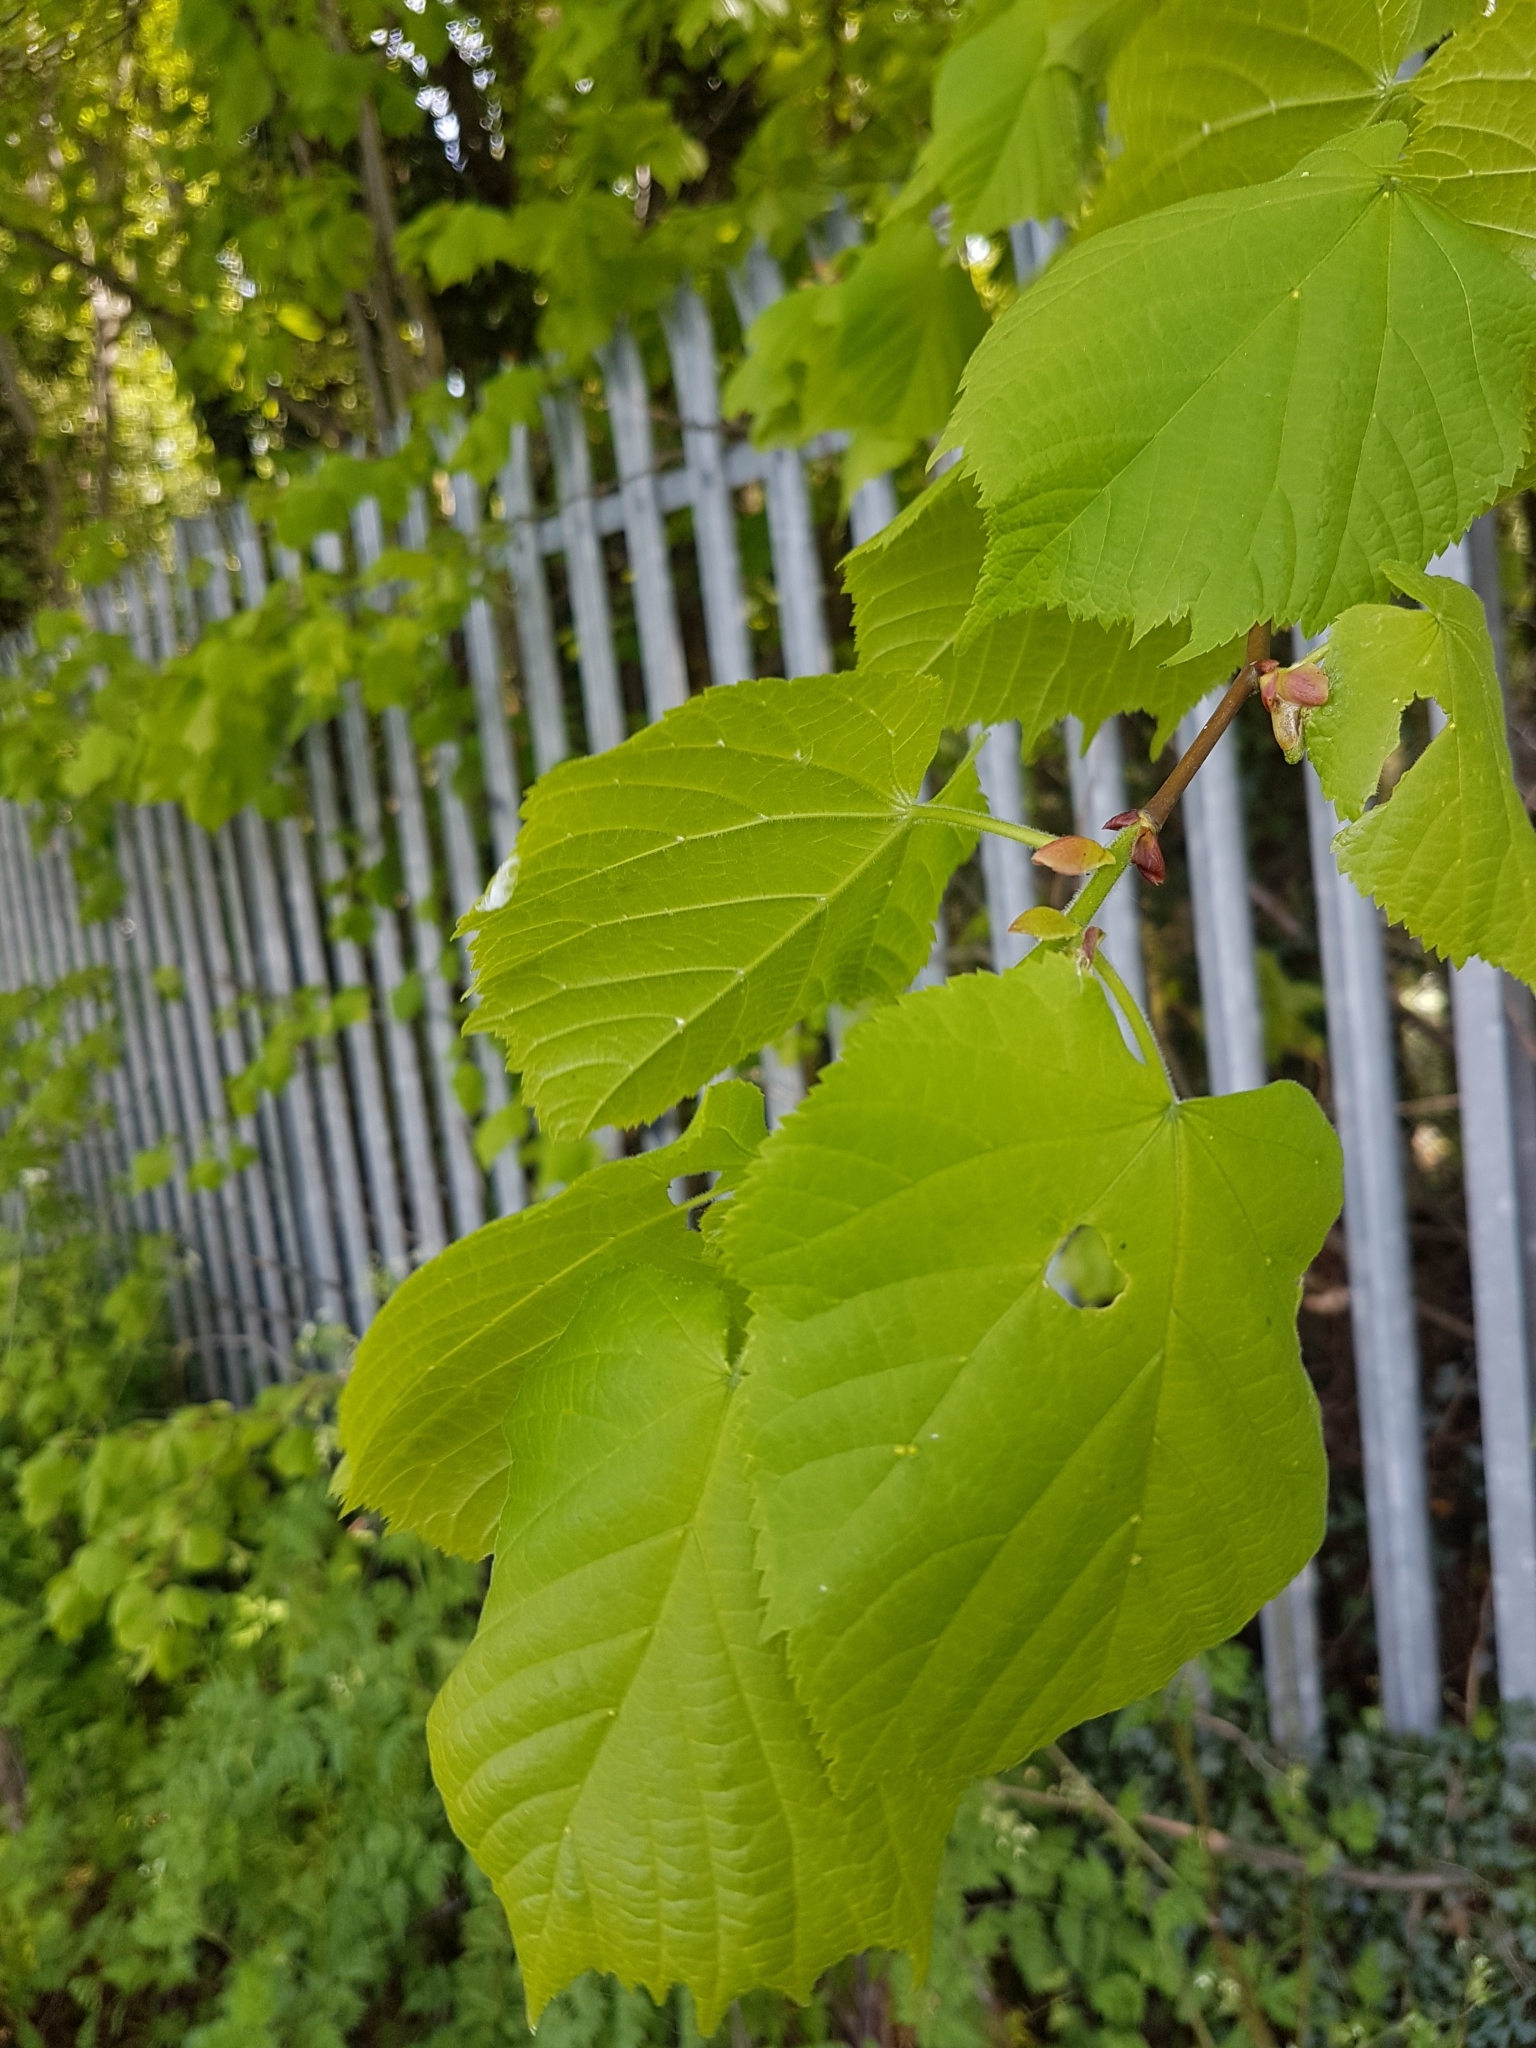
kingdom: Plantae
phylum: Tracheophyta
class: Magnoliopsida
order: Fagales
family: Betulaceae
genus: Corylus
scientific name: Corylus avellana
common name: European hazel
